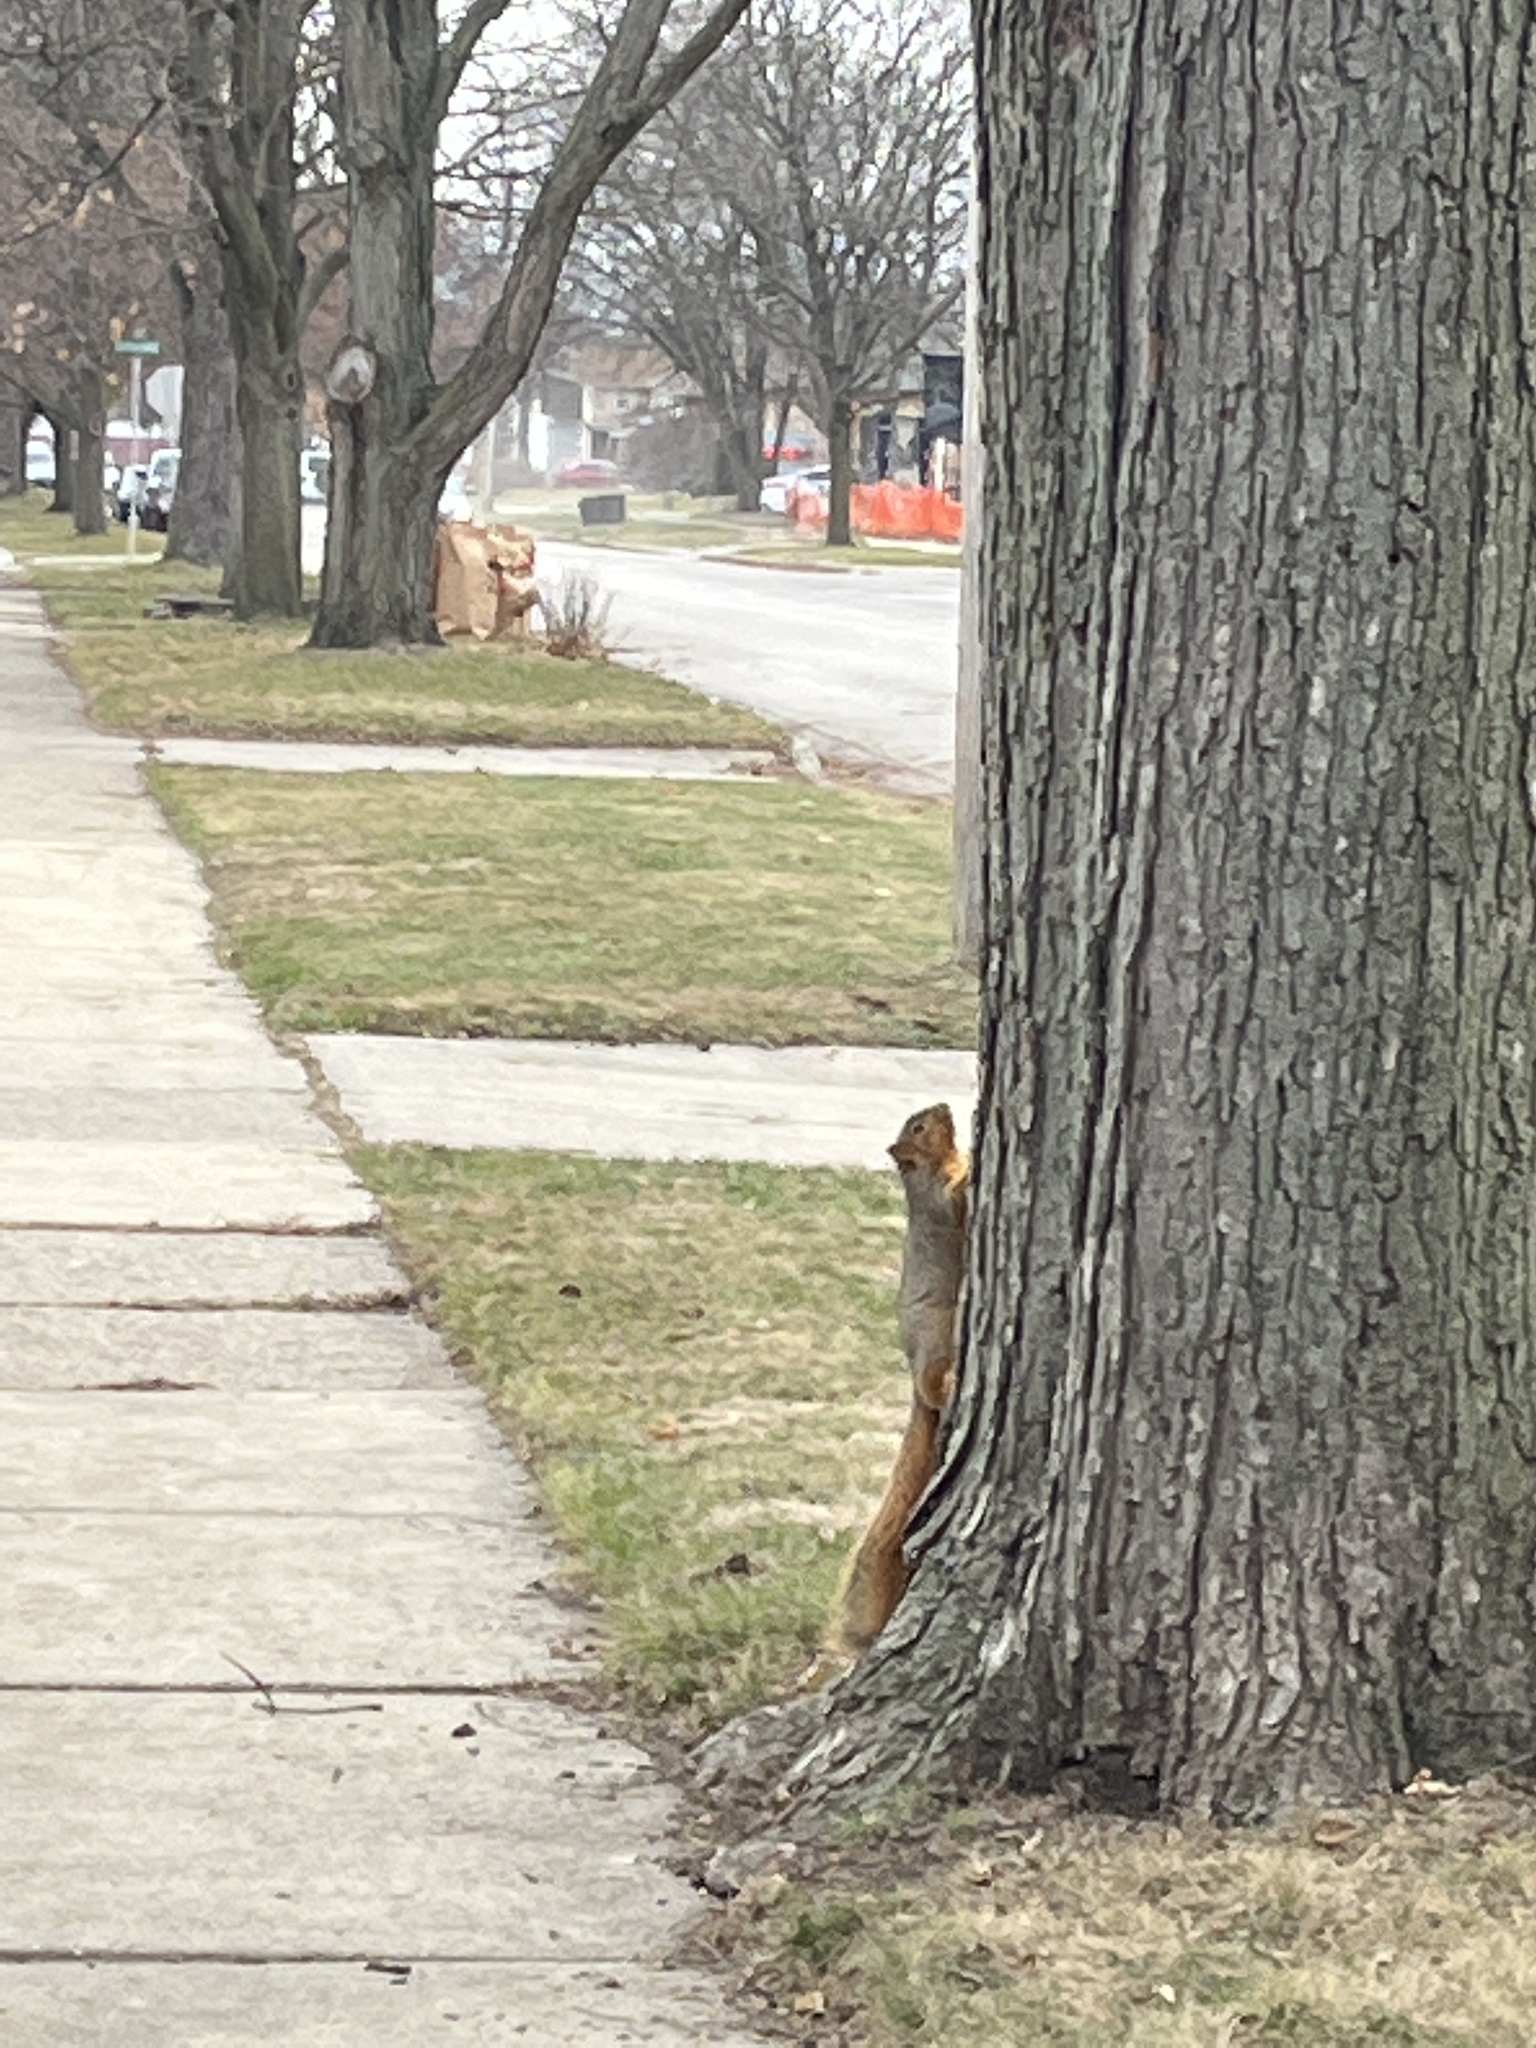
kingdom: Animalia
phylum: Chordata
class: Mammalia
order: Rodentia
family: Sciuridae
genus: Sciurus
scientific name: Sciurus niger
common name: Fox squirrel
